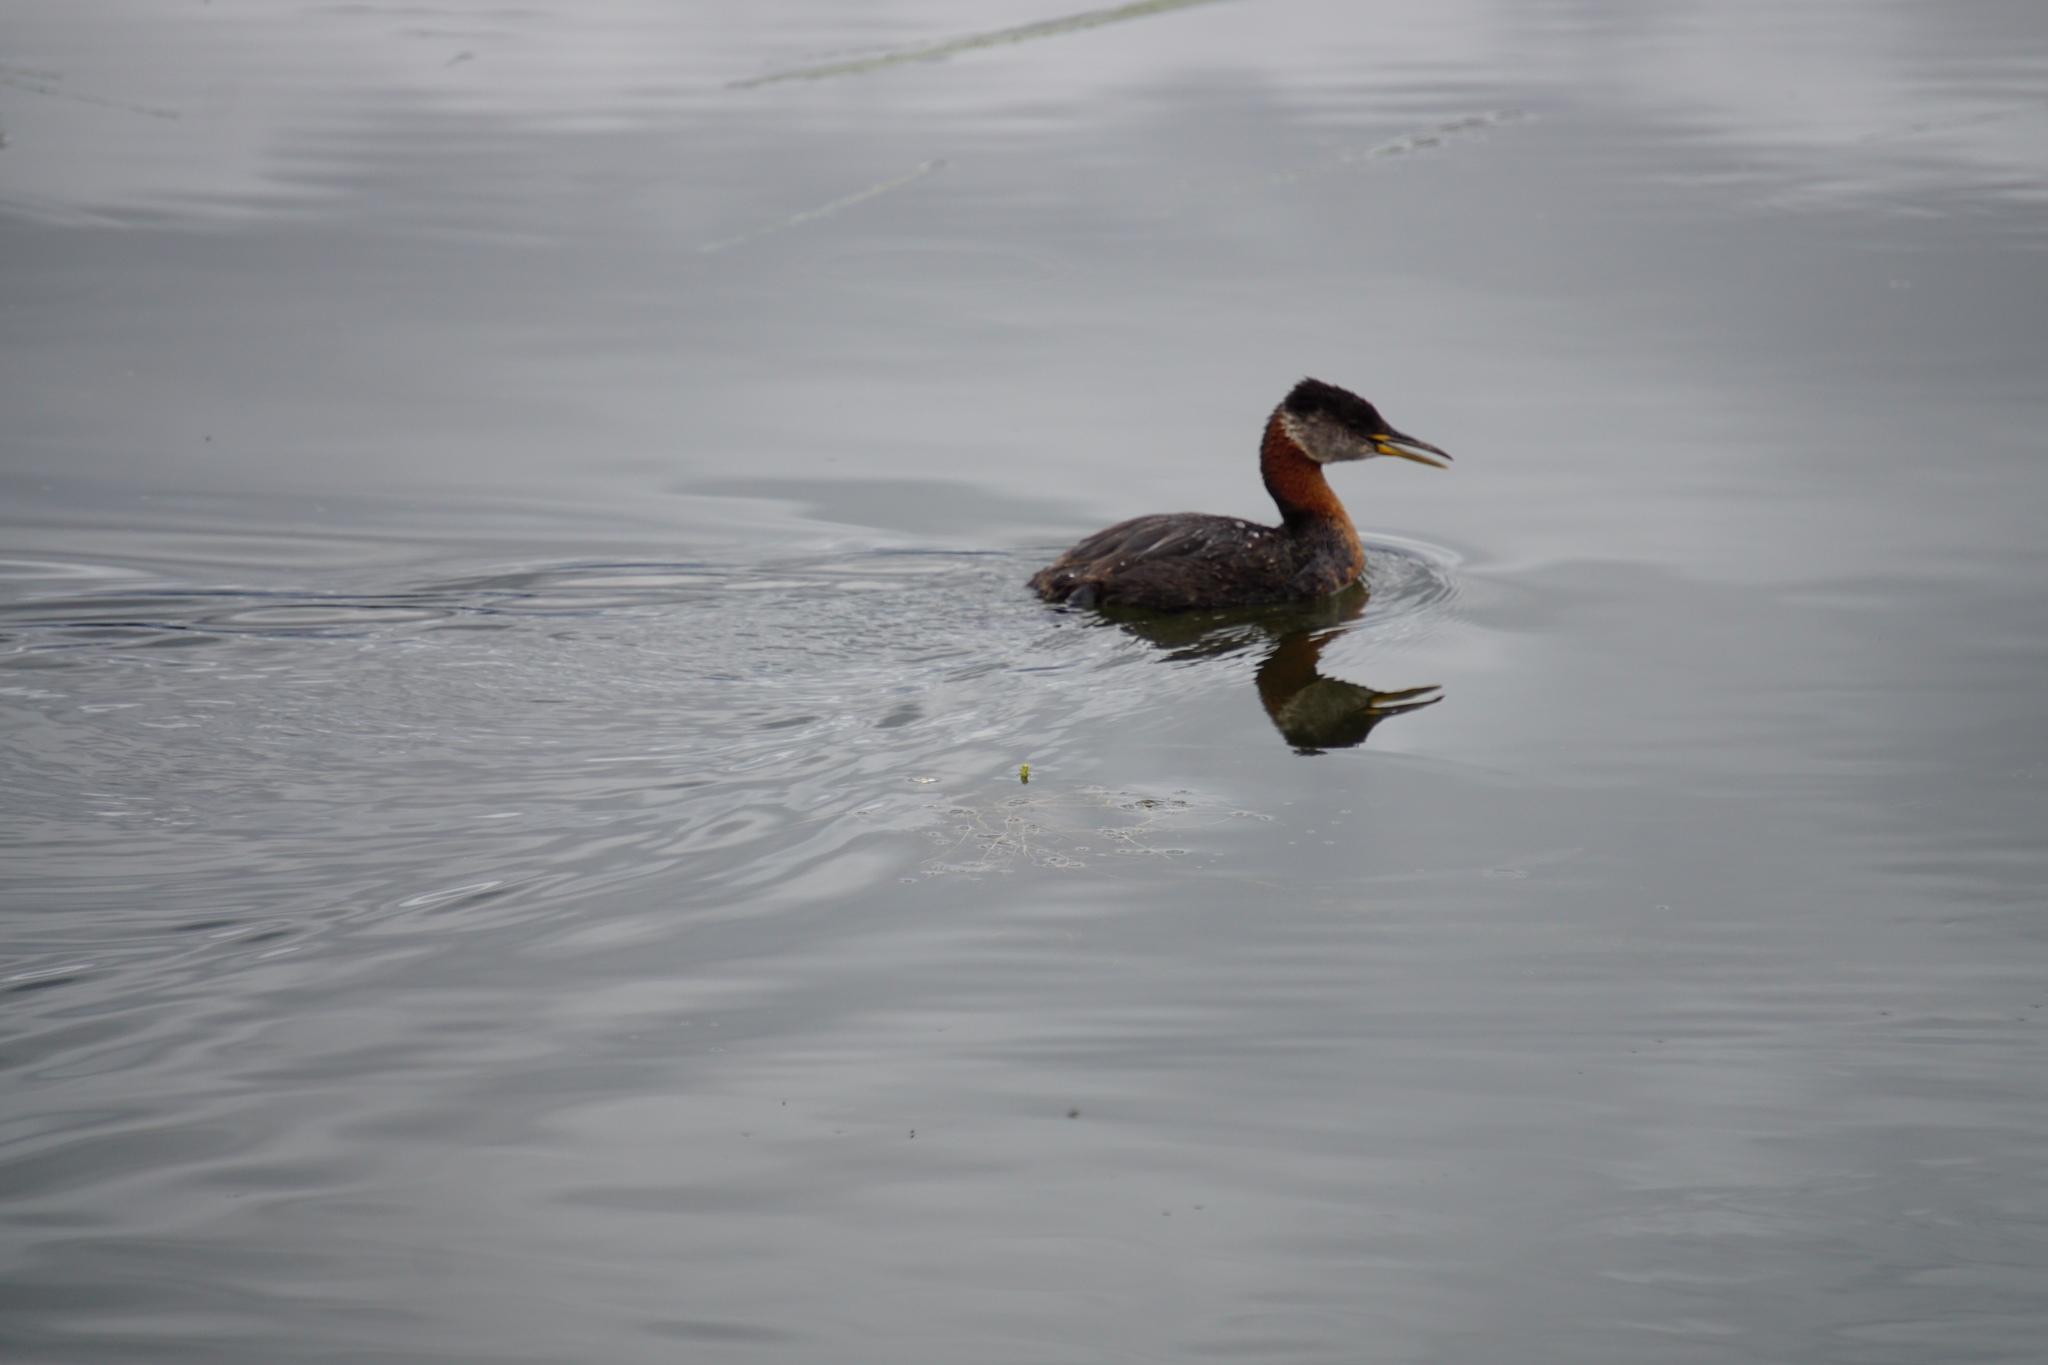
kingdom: Animalia
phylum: Chordata
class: Aves
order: Podicipediformes
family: Podicipedidae
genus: Podiceps
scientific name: Podiceps grisegena
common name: Red-necked grebe
